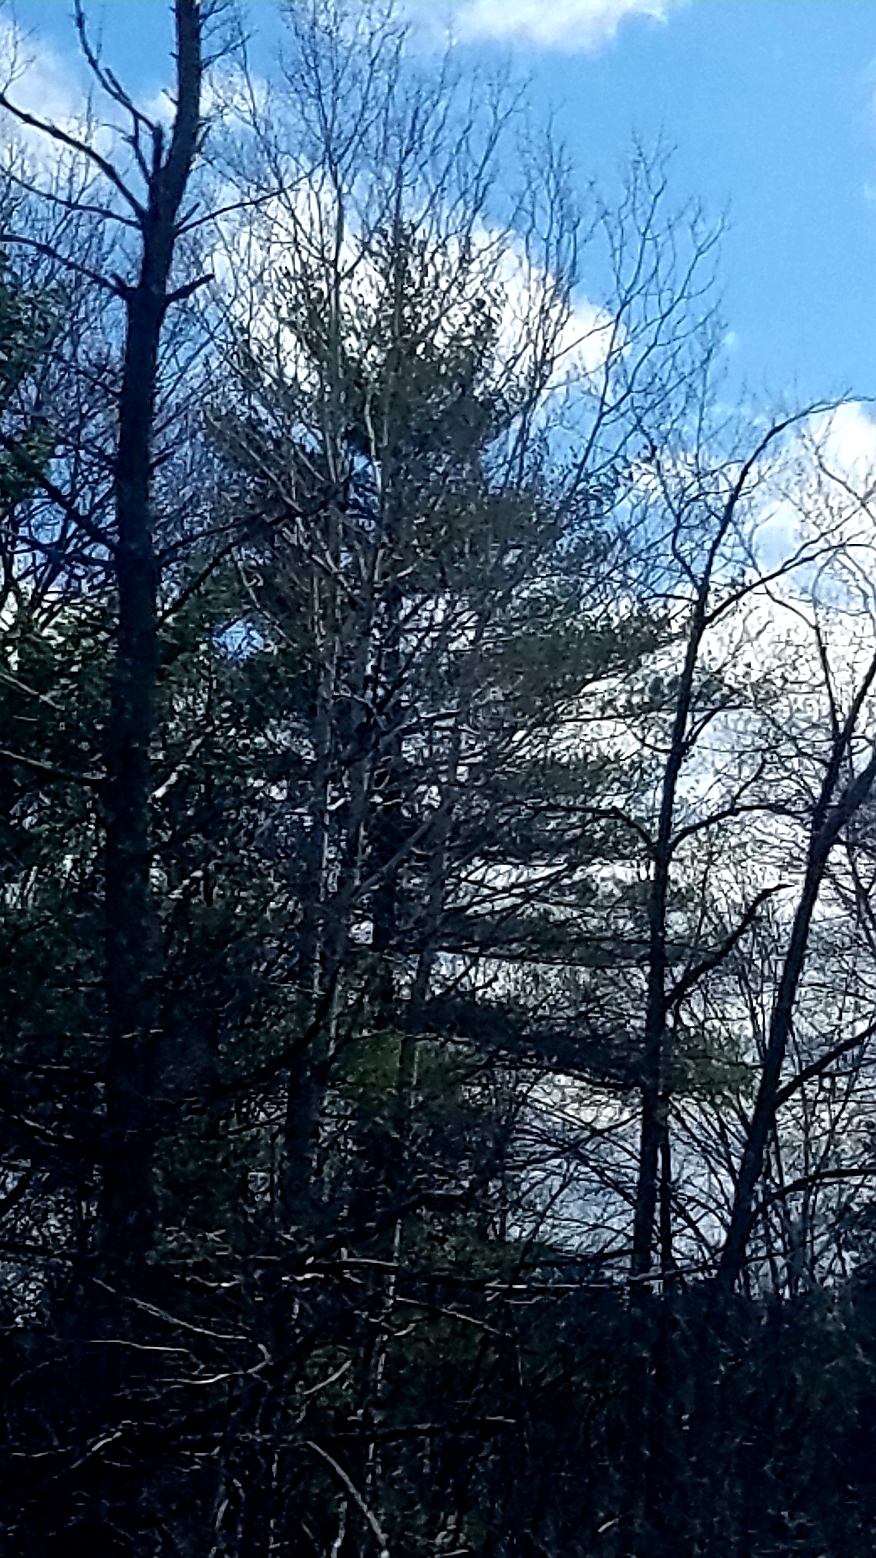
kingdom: Plantae
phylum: Tracheophyta
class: Pinopsida
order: Pinales
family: Pinaceae
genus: Pinus
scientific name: Pinus strobus
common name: Weymouth pine
